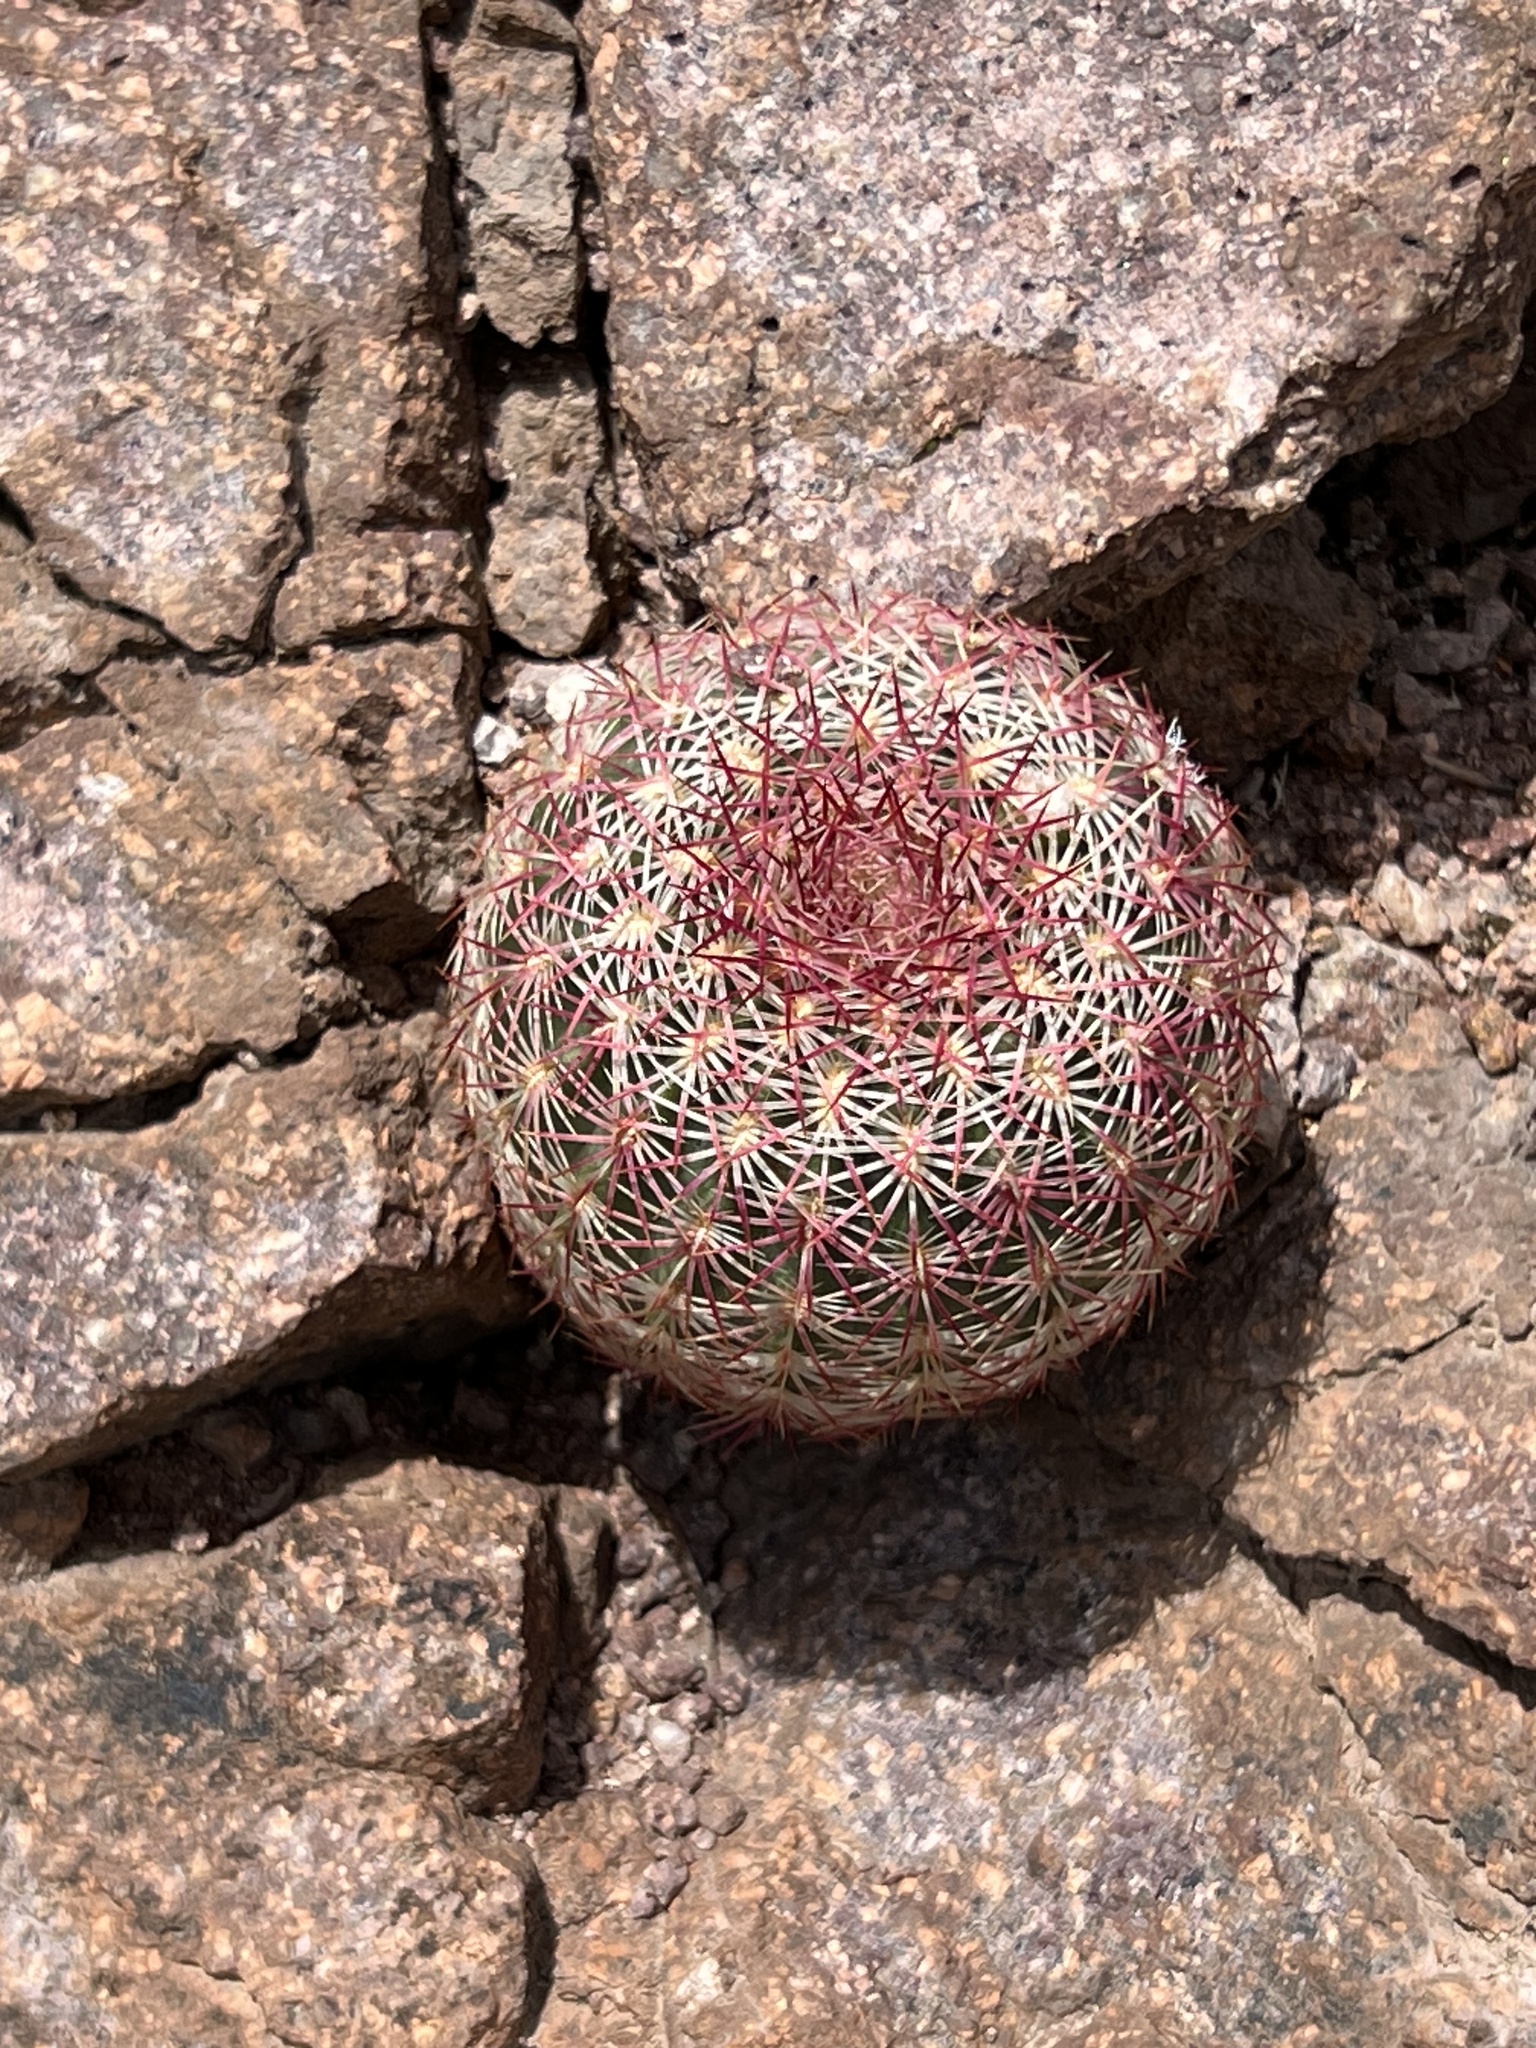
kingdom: Plantae
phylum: Tracheophyta
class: Magnoliopsida
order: Caryophyllales
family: Cactaceae
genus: Echinocereus
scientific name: Echinocereus rigidissimus
